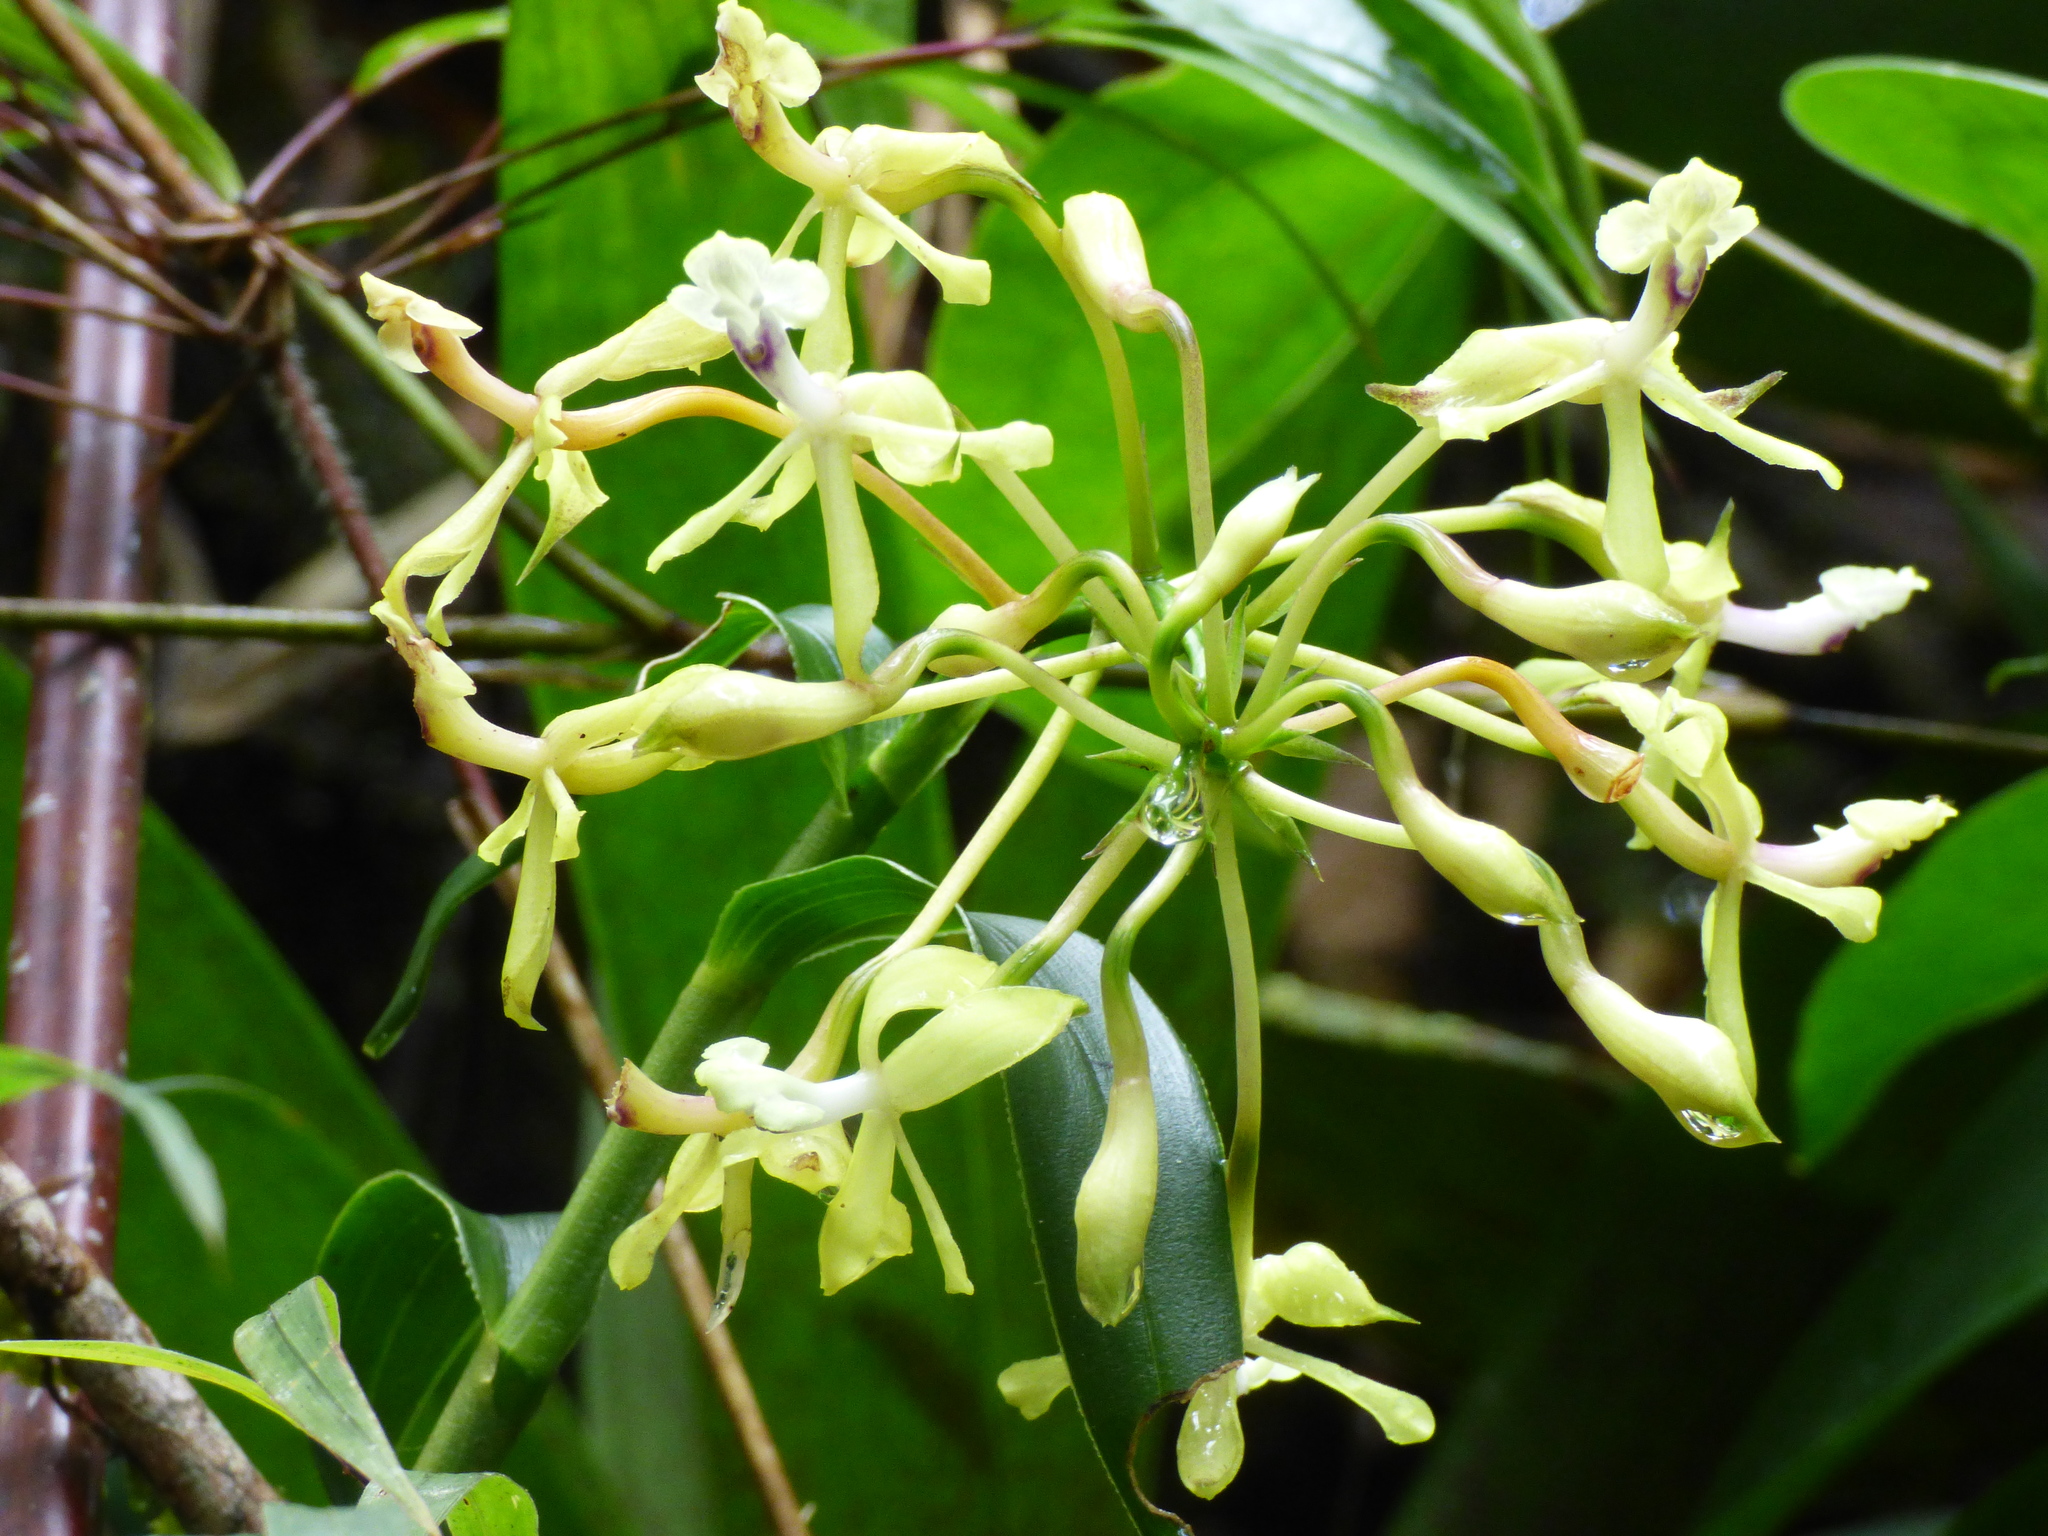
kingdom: Plantae
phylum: Tracheophyta
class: Liliopsida
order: Asparagales
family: Orchidaceae
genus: Epidendrum
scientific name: Epidendrum scytocladium
